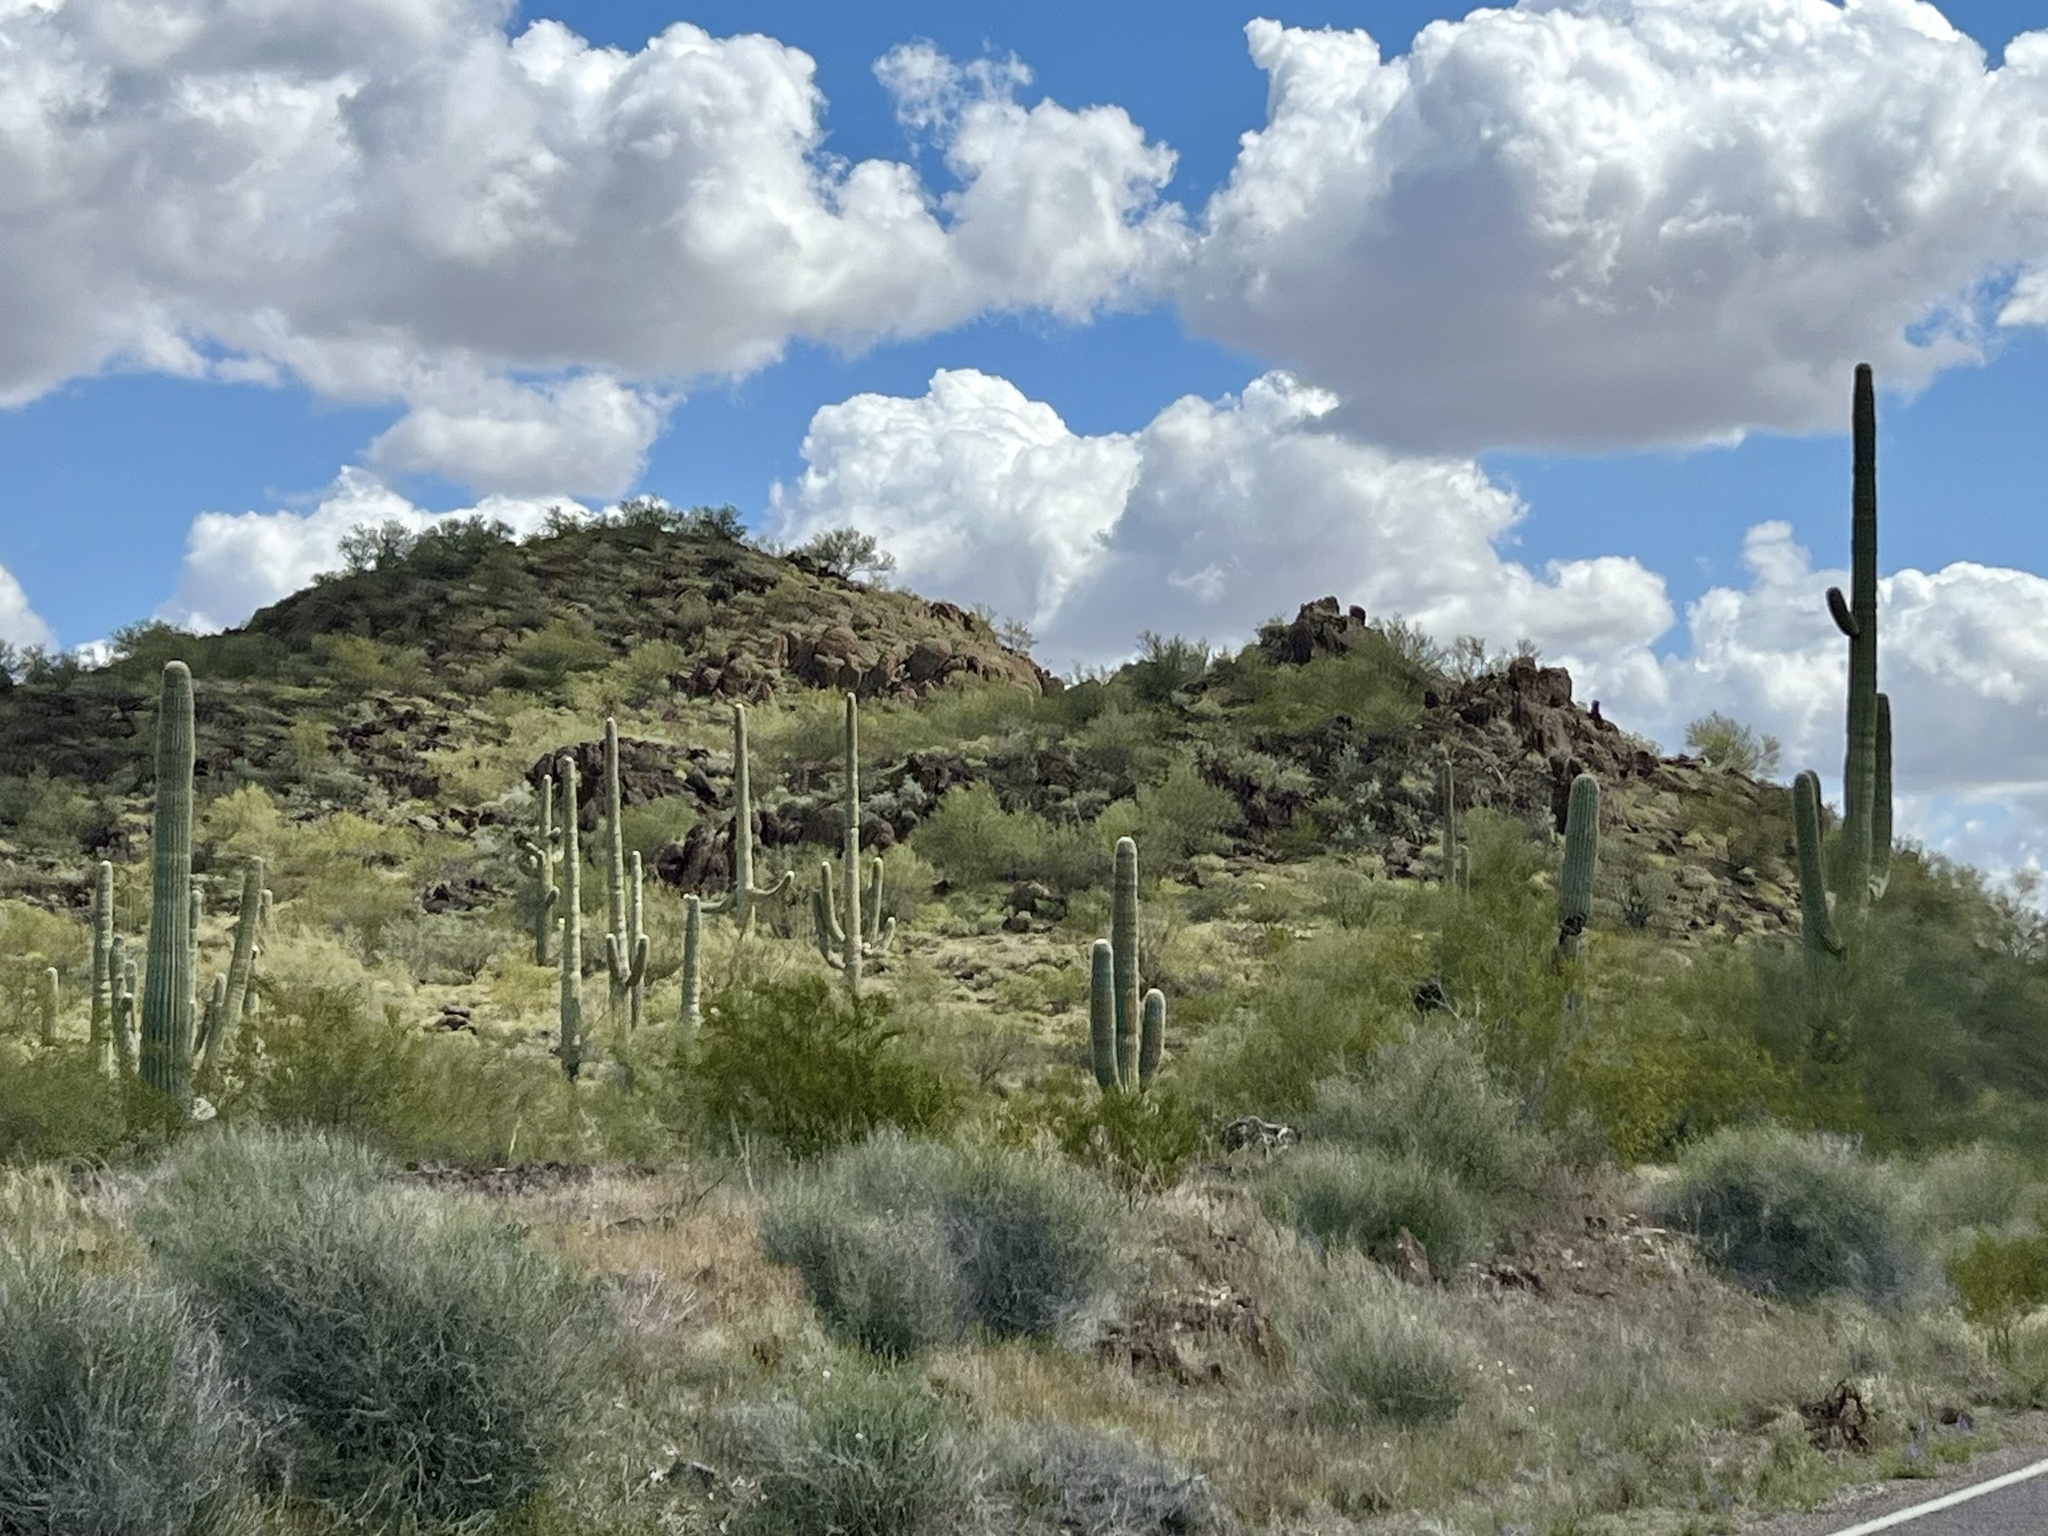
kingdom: Plantae
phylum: Tracheophyta
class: Magnoliopsida
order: Caryophyllales
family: Cactaceae
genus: Carnegiea
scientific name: Carnegiea gigantea
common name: Saguaro
